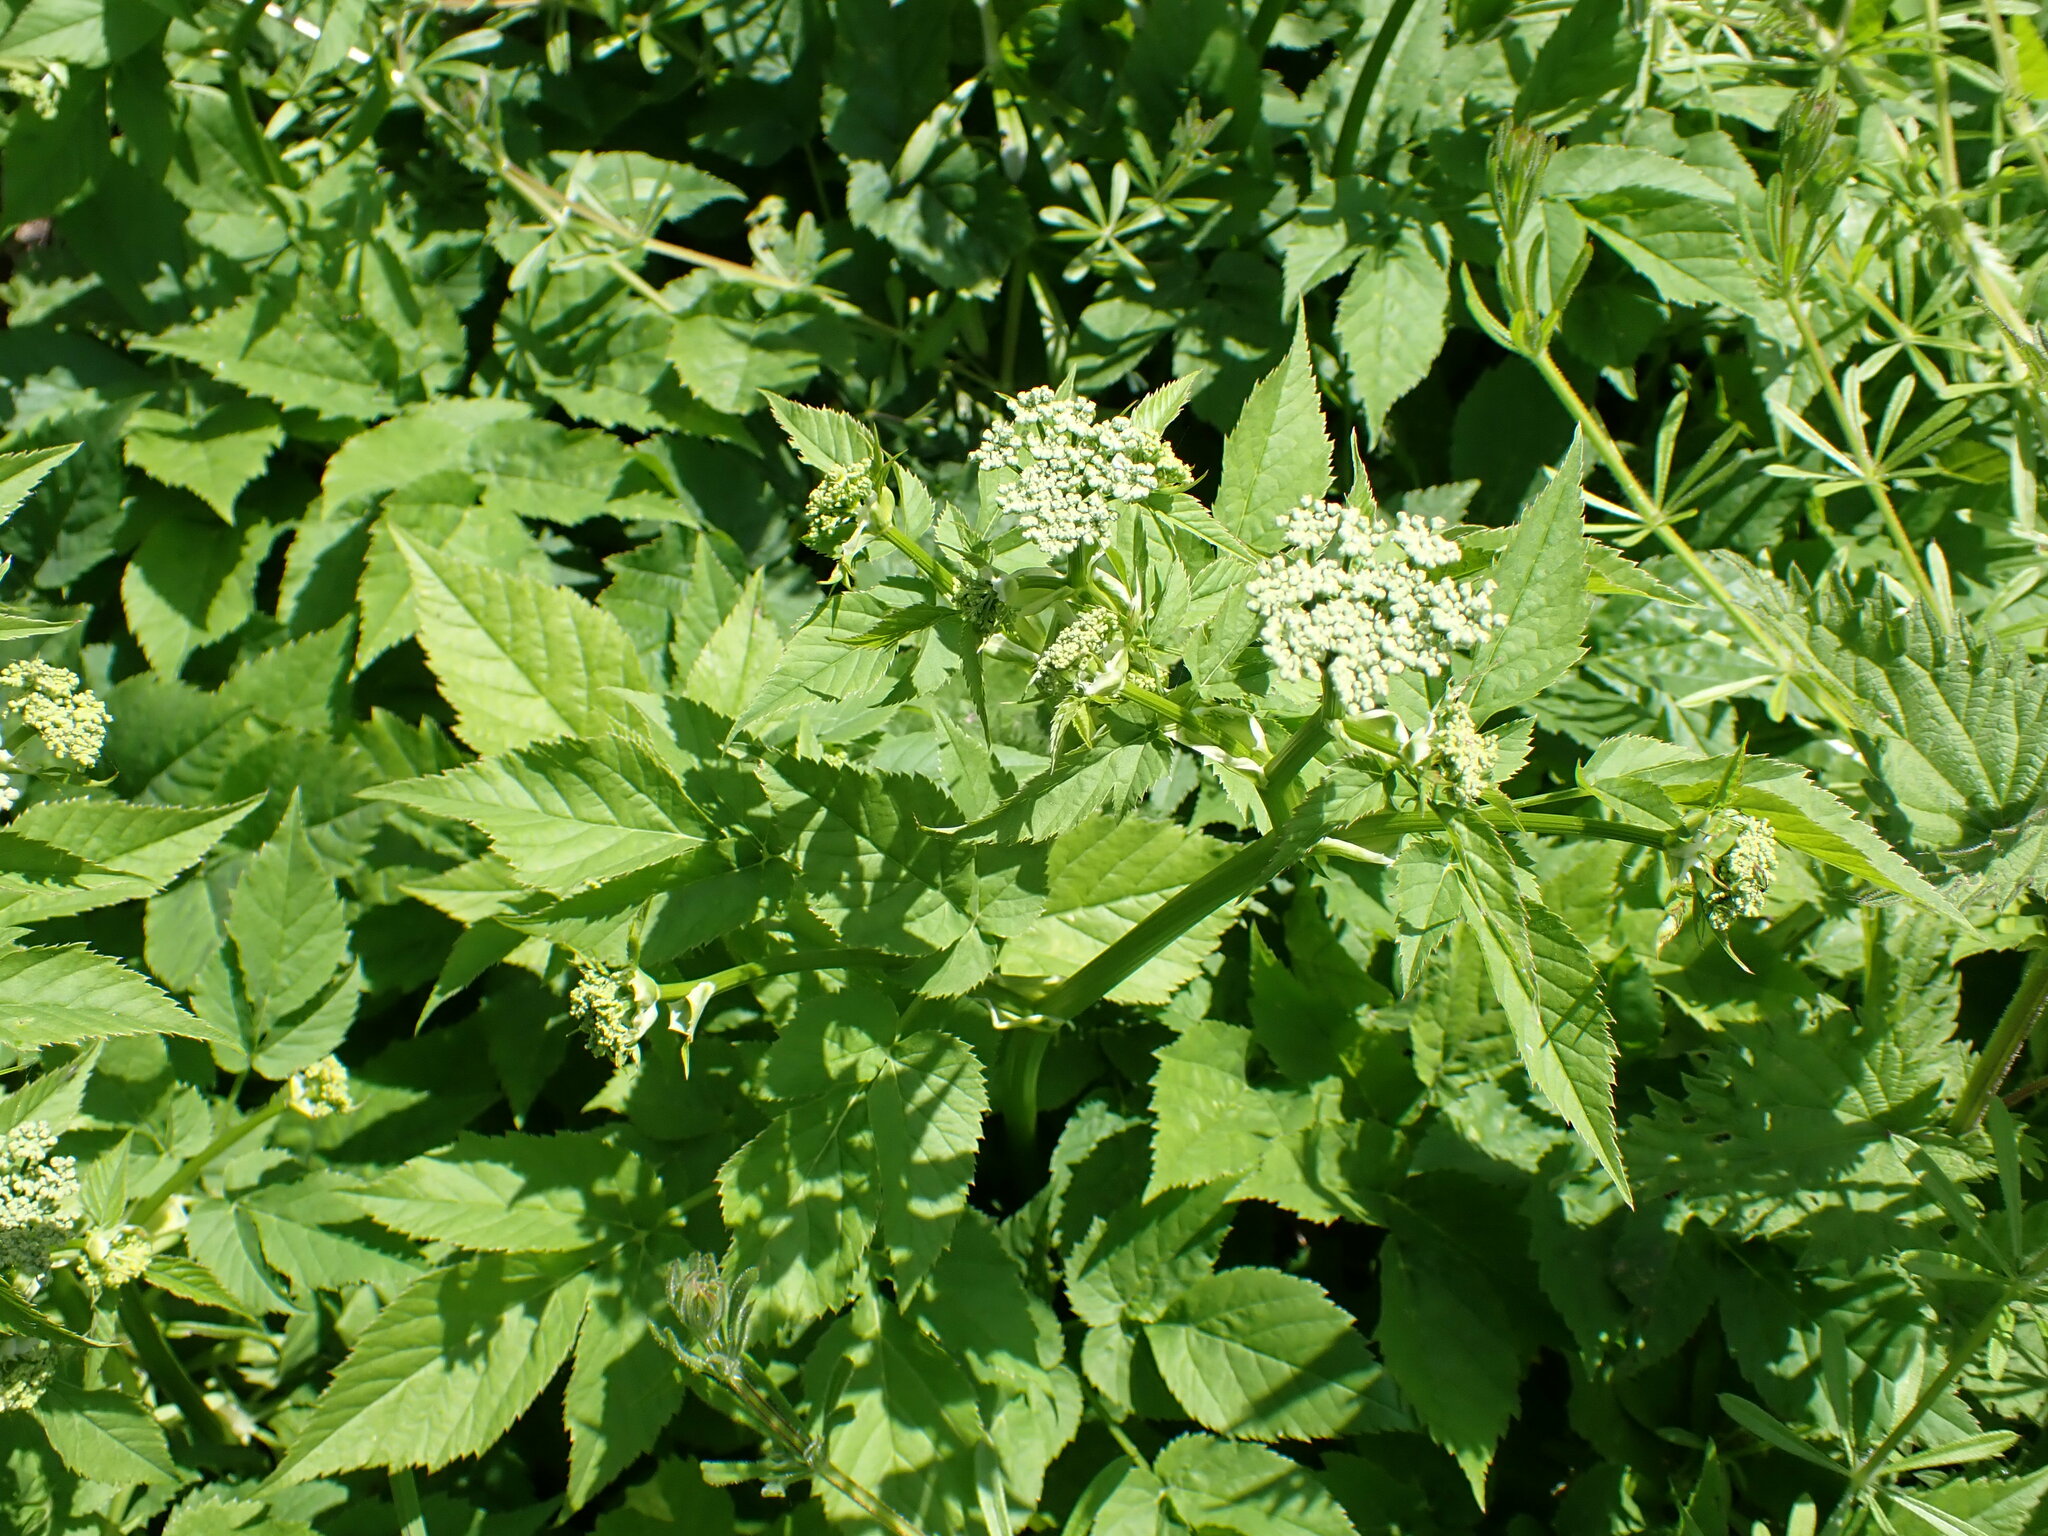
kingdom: Plantae
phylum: Tracheophyta
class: Magnoliopsida
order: Apiales
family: Apiaceae
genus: Aegopodium
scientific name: Aegopodium podagraria
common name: Ground-elder
